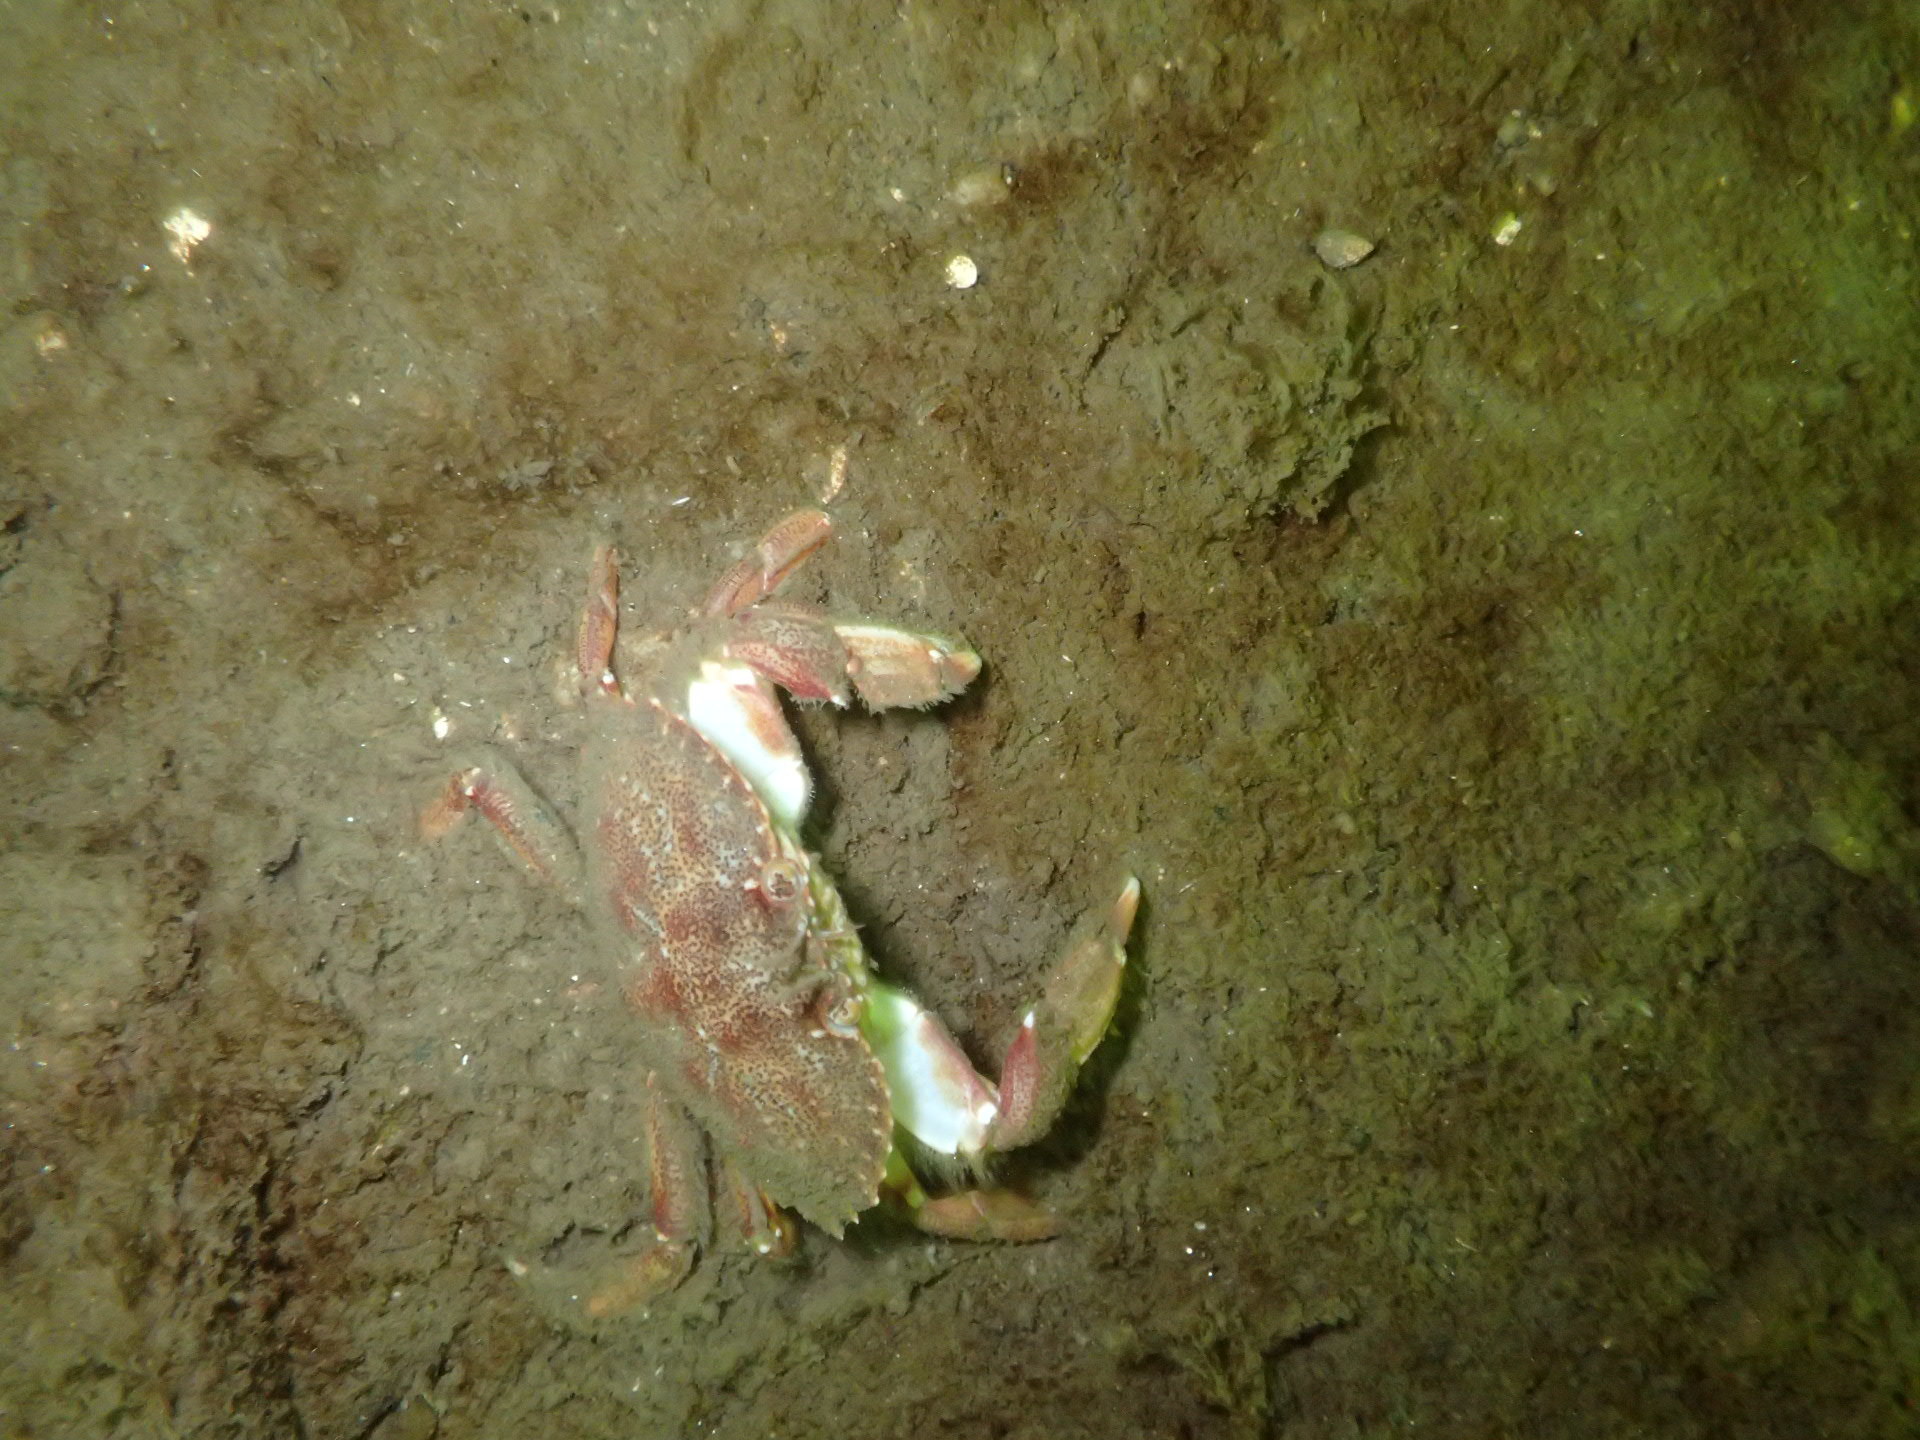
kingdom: Animalia
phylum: Arthropoda
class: Malacostraca
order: Decapoda
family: Cancridae
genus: Cancer
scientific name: Cancer irroratus
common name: Atlantic rock crab
